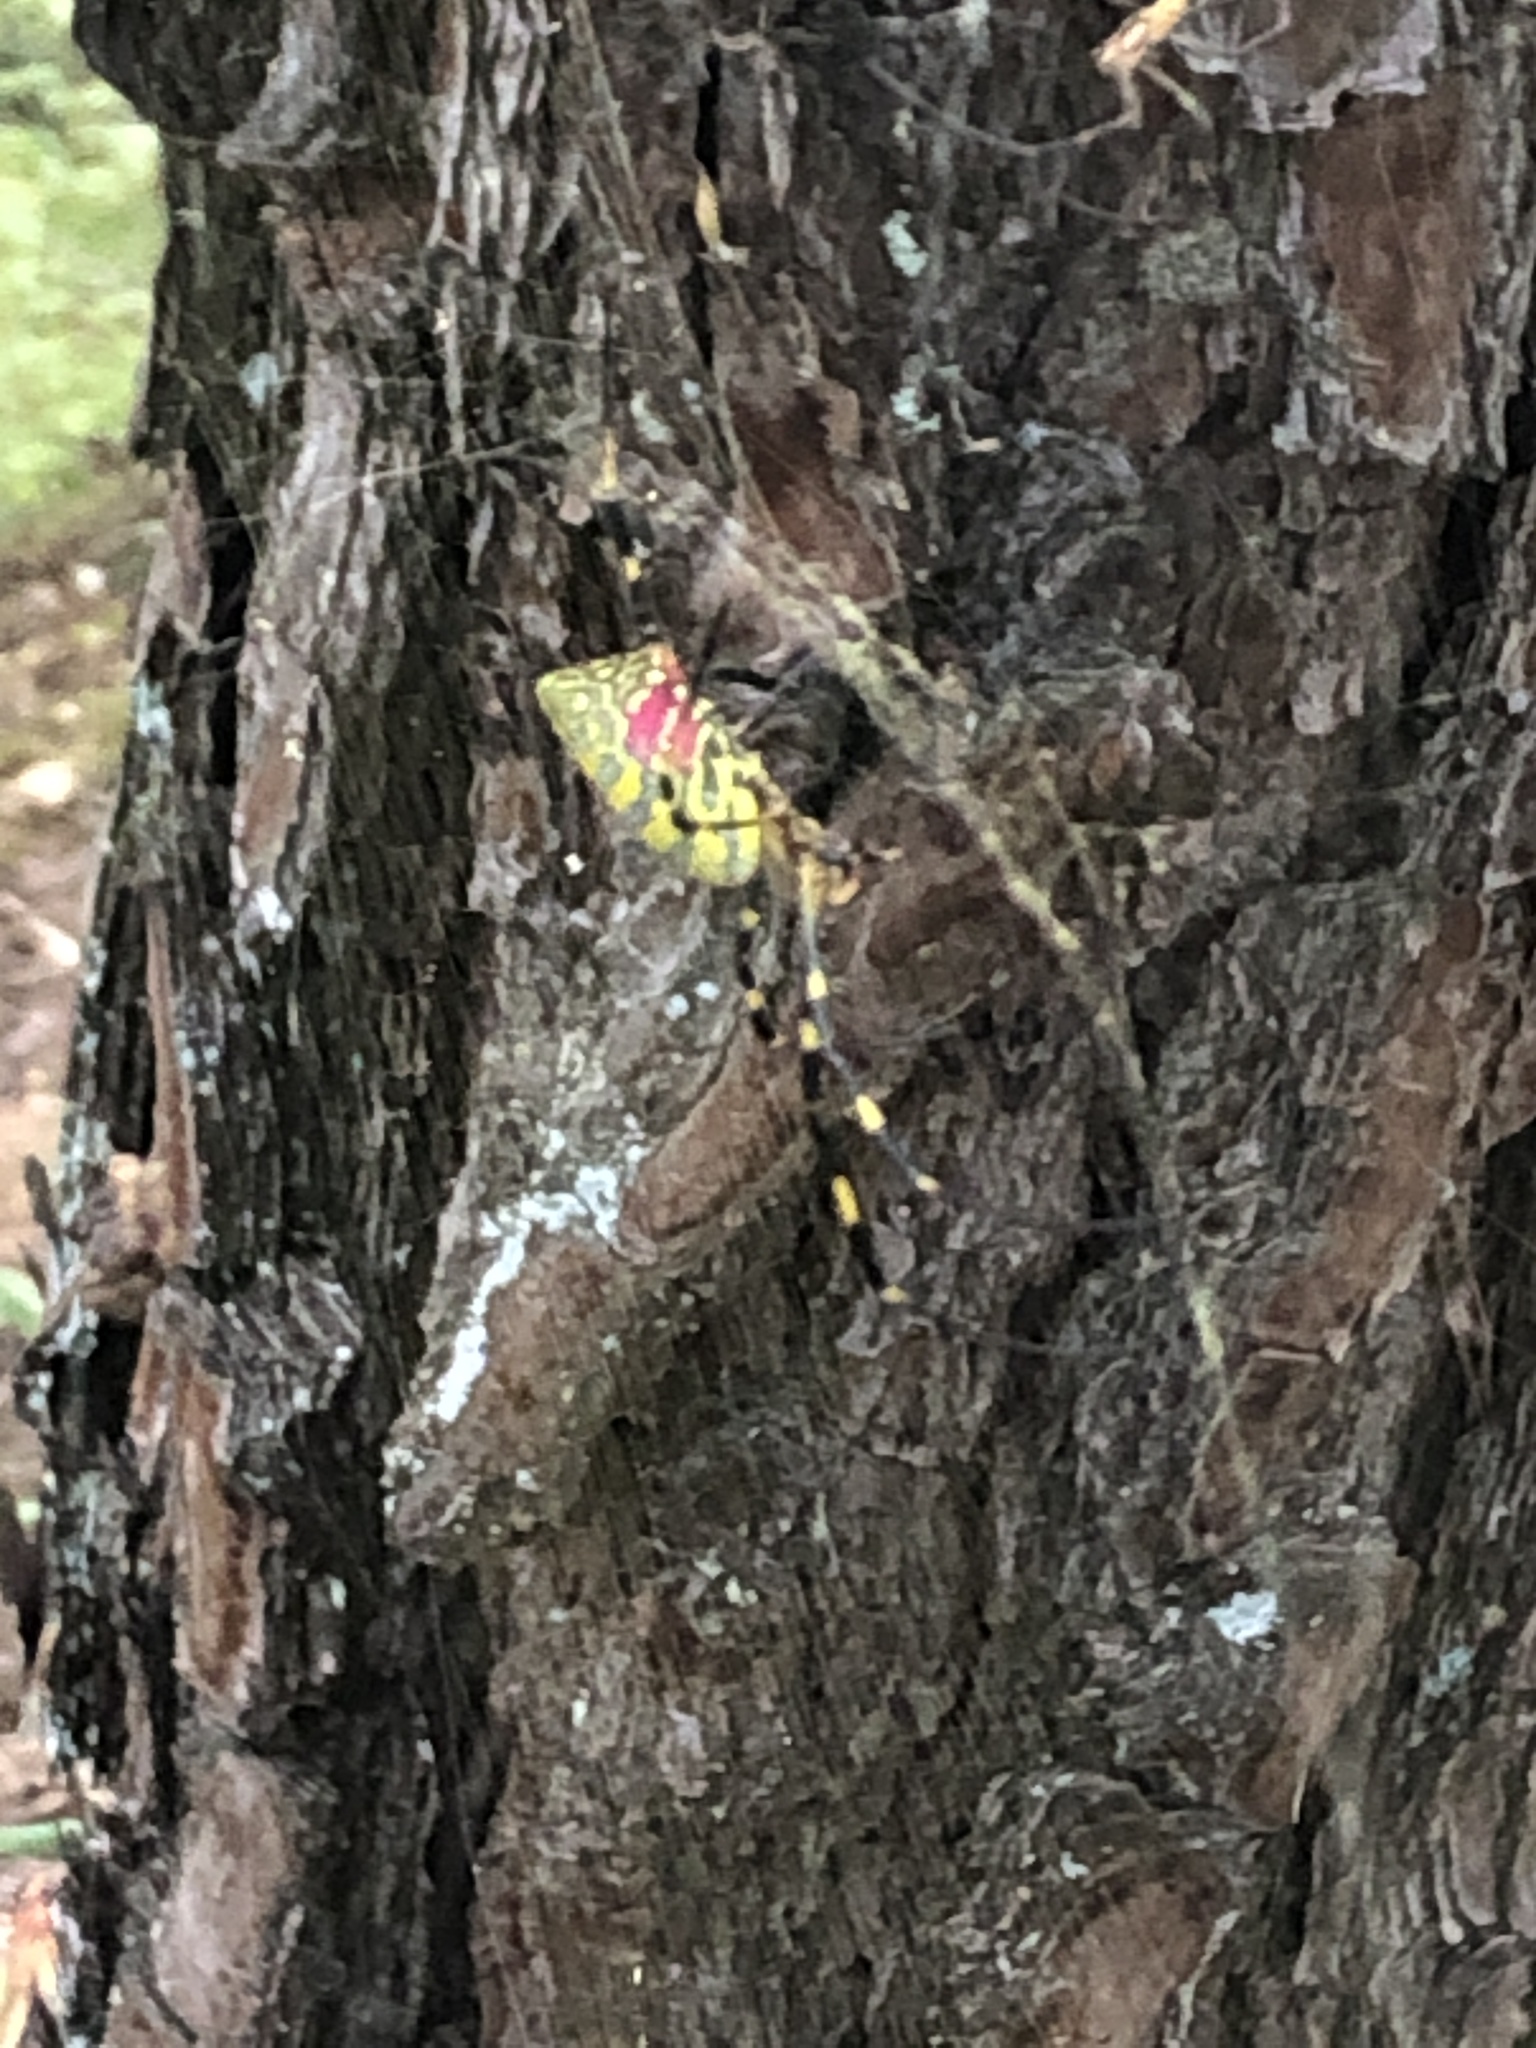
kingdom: Animalia
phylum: Arthropoda
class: Arachnida
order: Araneae
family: Araneidae
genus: Trichonephila
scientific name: Trichonephila clavata
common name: Jorō spider
